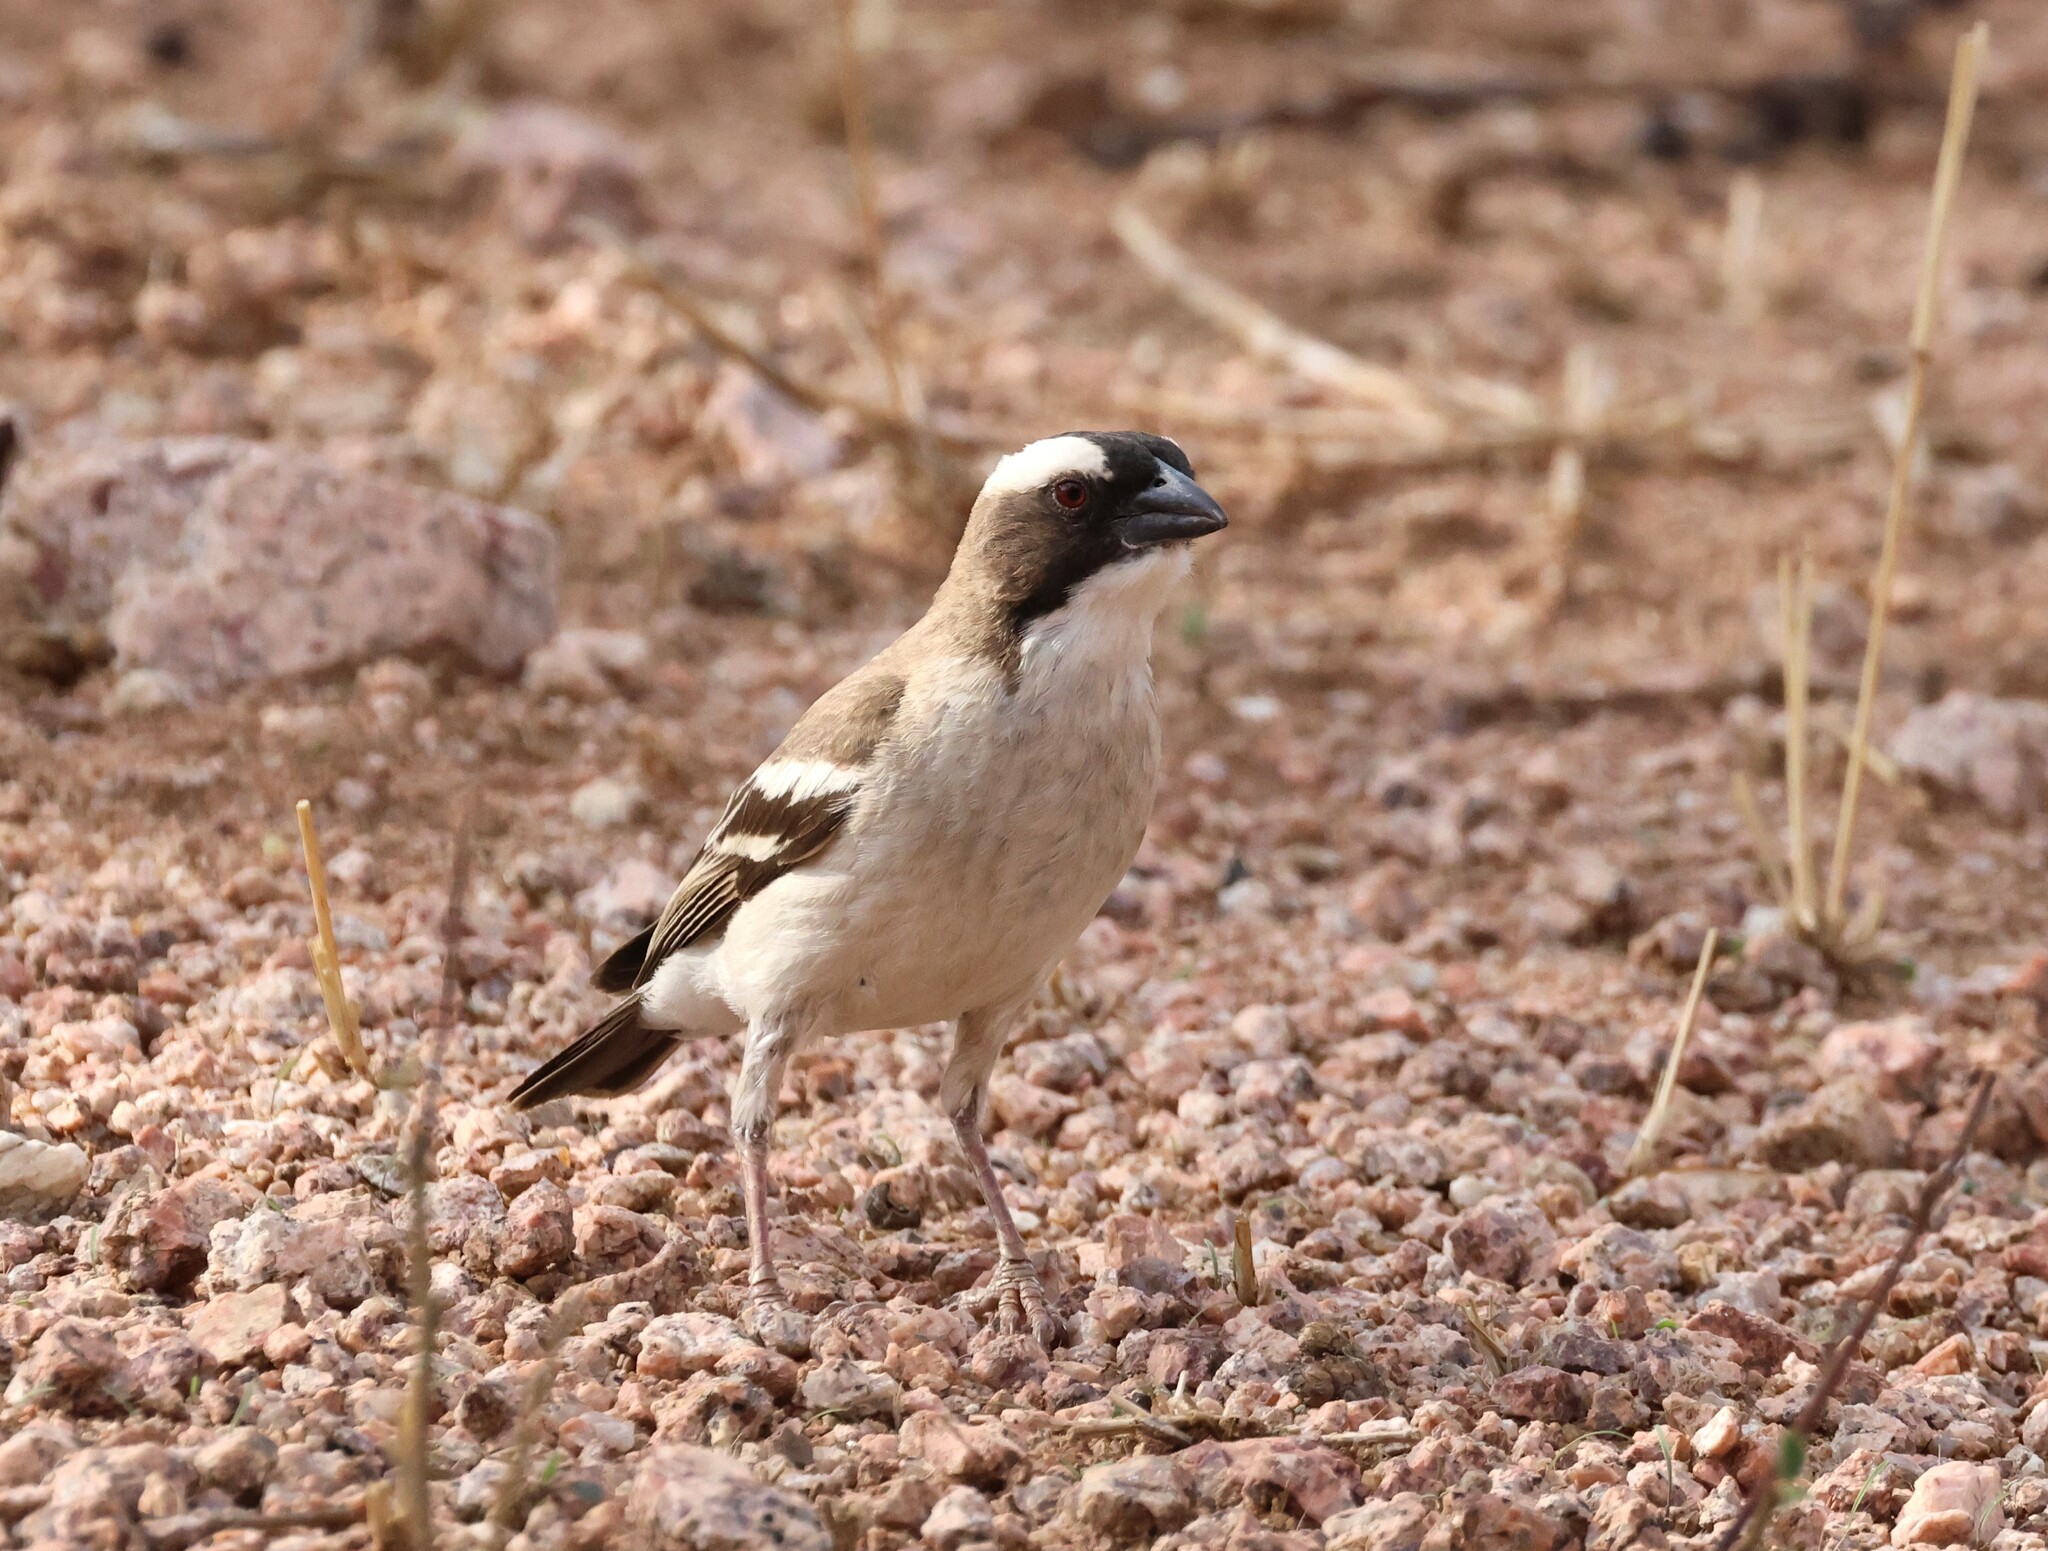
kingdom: Animalia
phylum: Chordata
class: Aves
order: Passeriformes
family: Passeridae
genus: Plocepasser
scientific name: Plocepasser mahali
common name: White-browed sparrow-weaver
